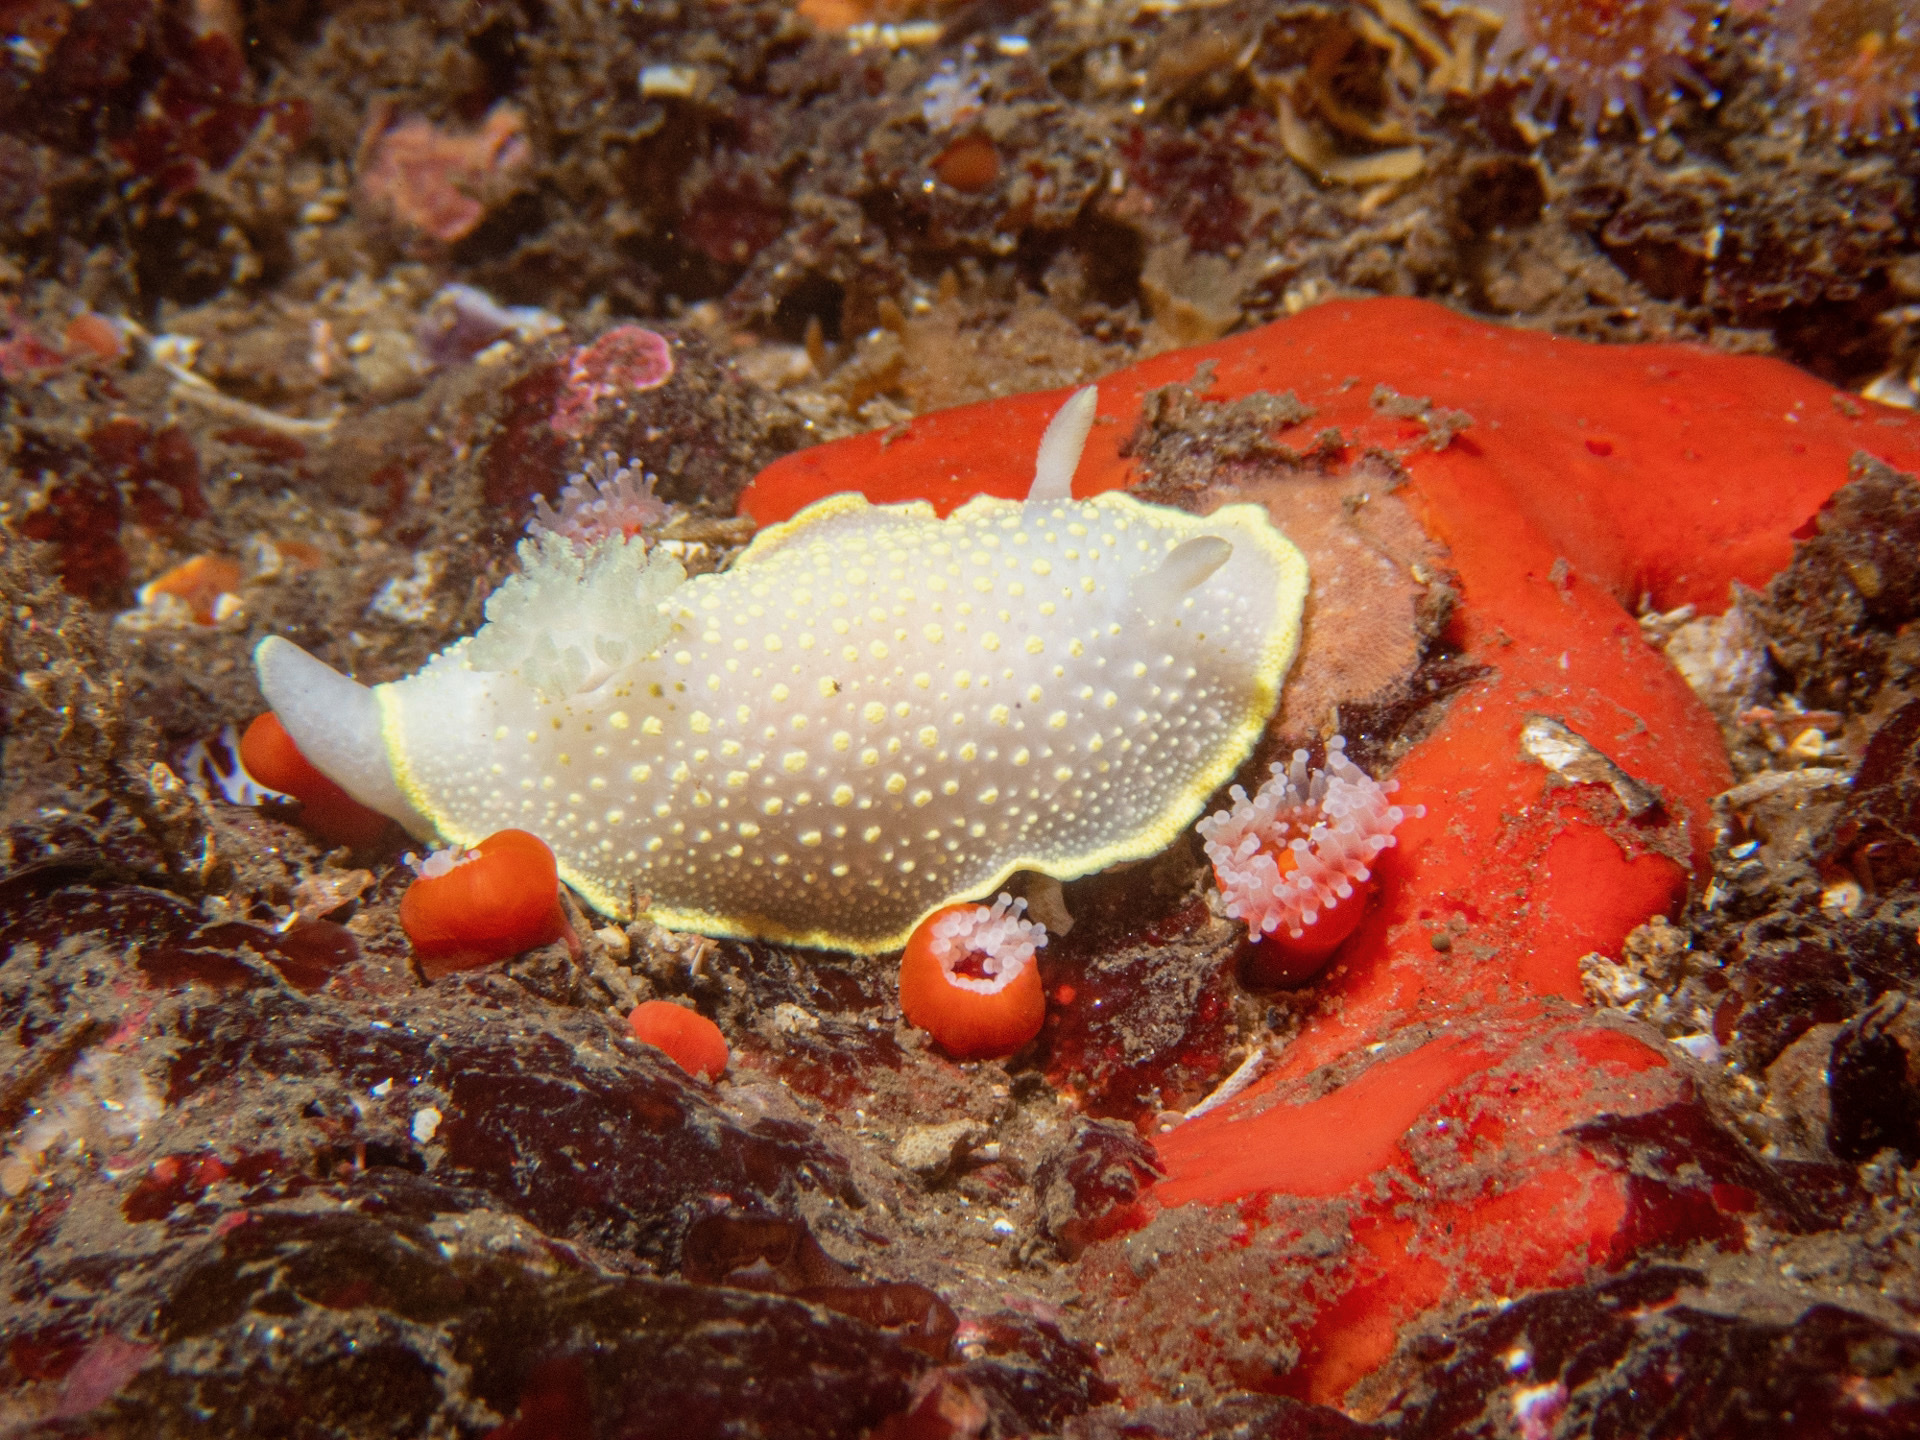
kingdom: Animalia
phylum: Mollusca
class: Gastropoda
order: Nudibranchia
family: Cadlinidae
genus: Cadlina
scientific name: Cadlina luteomarginata
